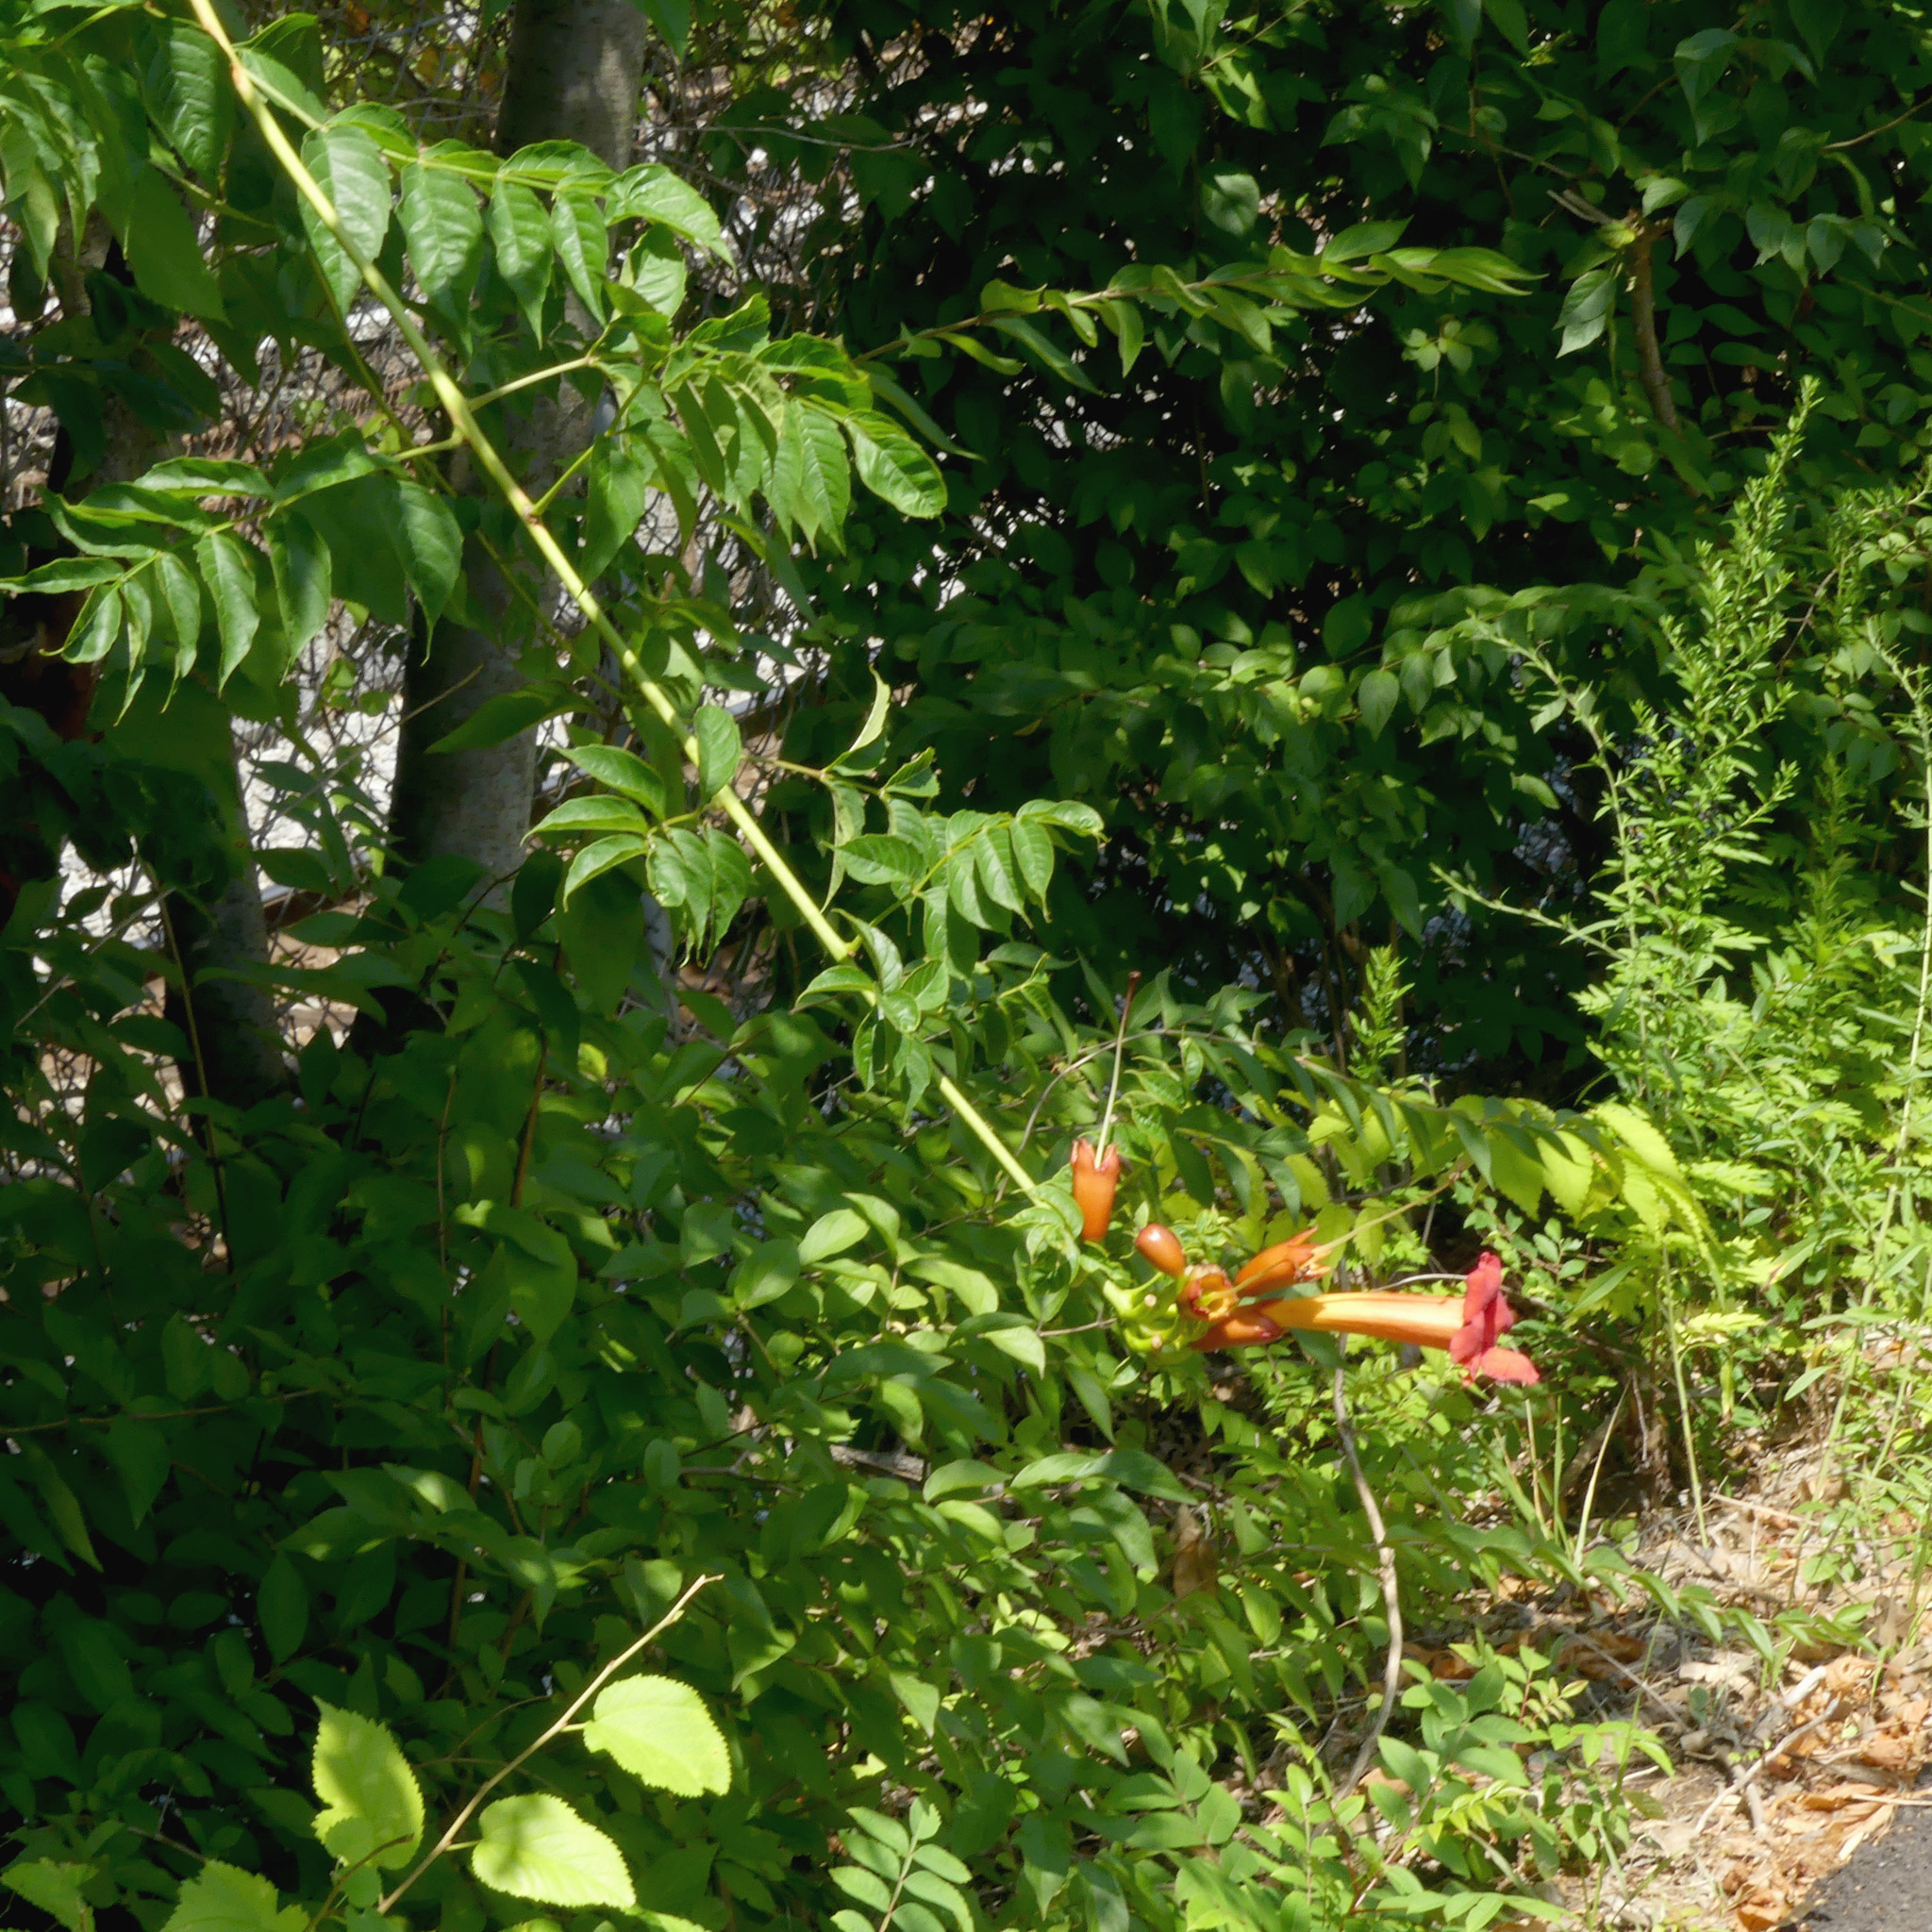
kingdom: Plantae
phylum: Tracheophyta
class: Magnoliopsida
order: Lamiales
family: Bignoniaceae
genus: Campsis
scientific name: Campsis radicans
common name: Trumpet-creeper
